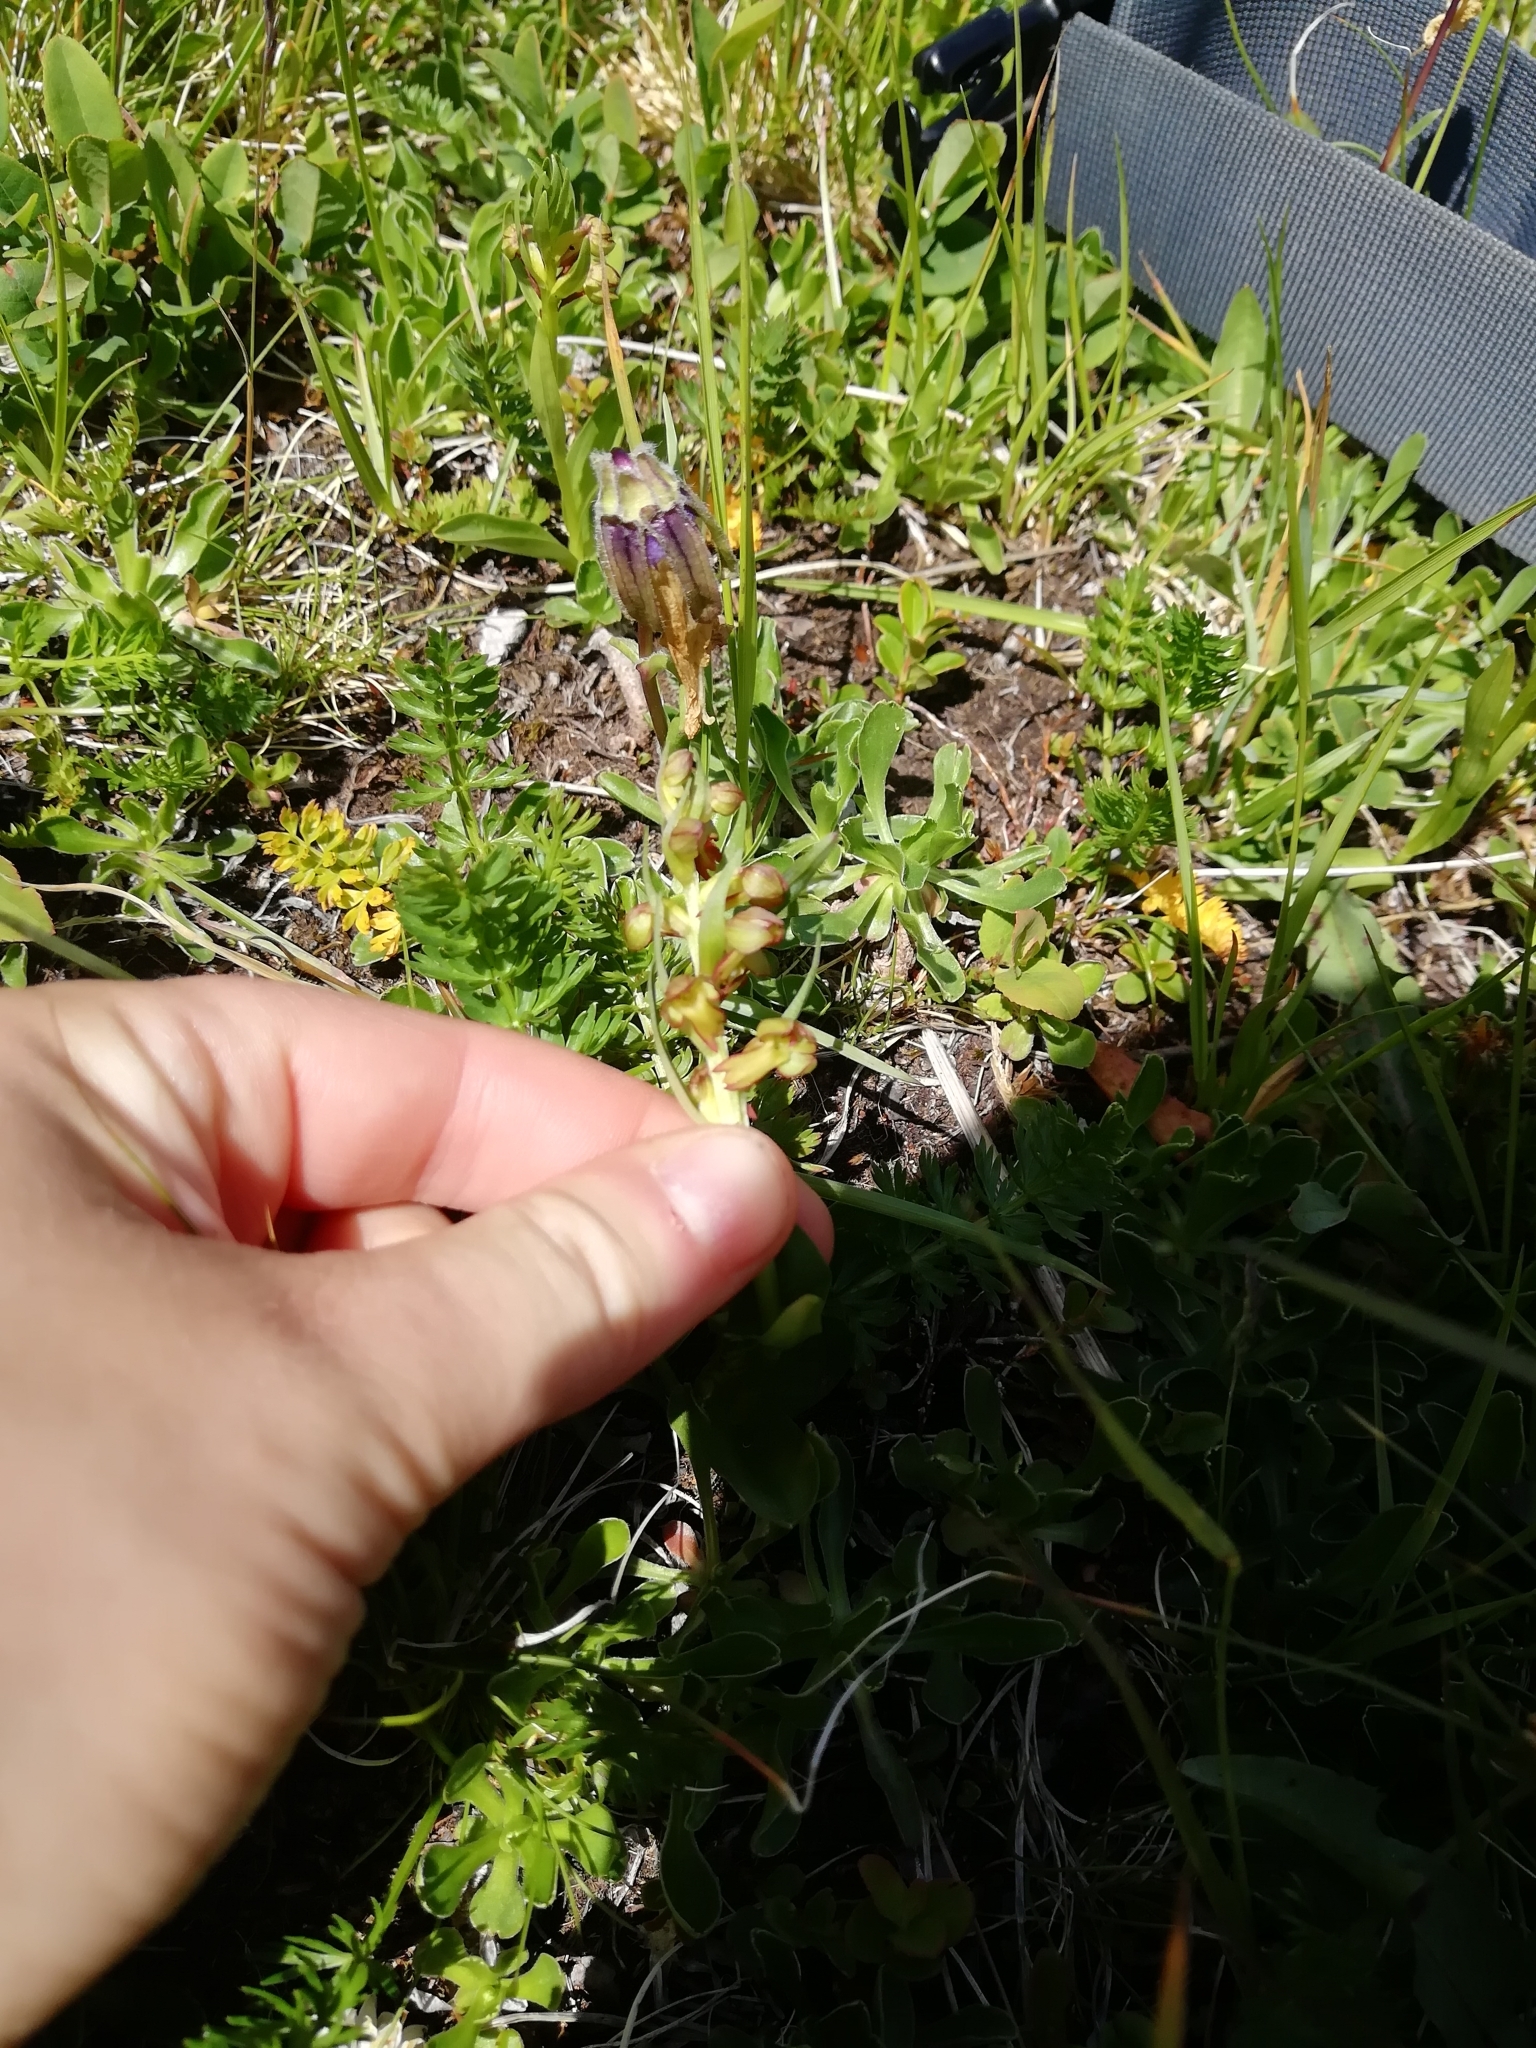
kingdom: Plantae
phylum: Tracheophyta
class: Liliopsida
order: Asparagales
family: Orchidaceae
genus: Dactylorhiza
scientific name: Dactylorhiza viridis
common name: Longbract frog orchid
